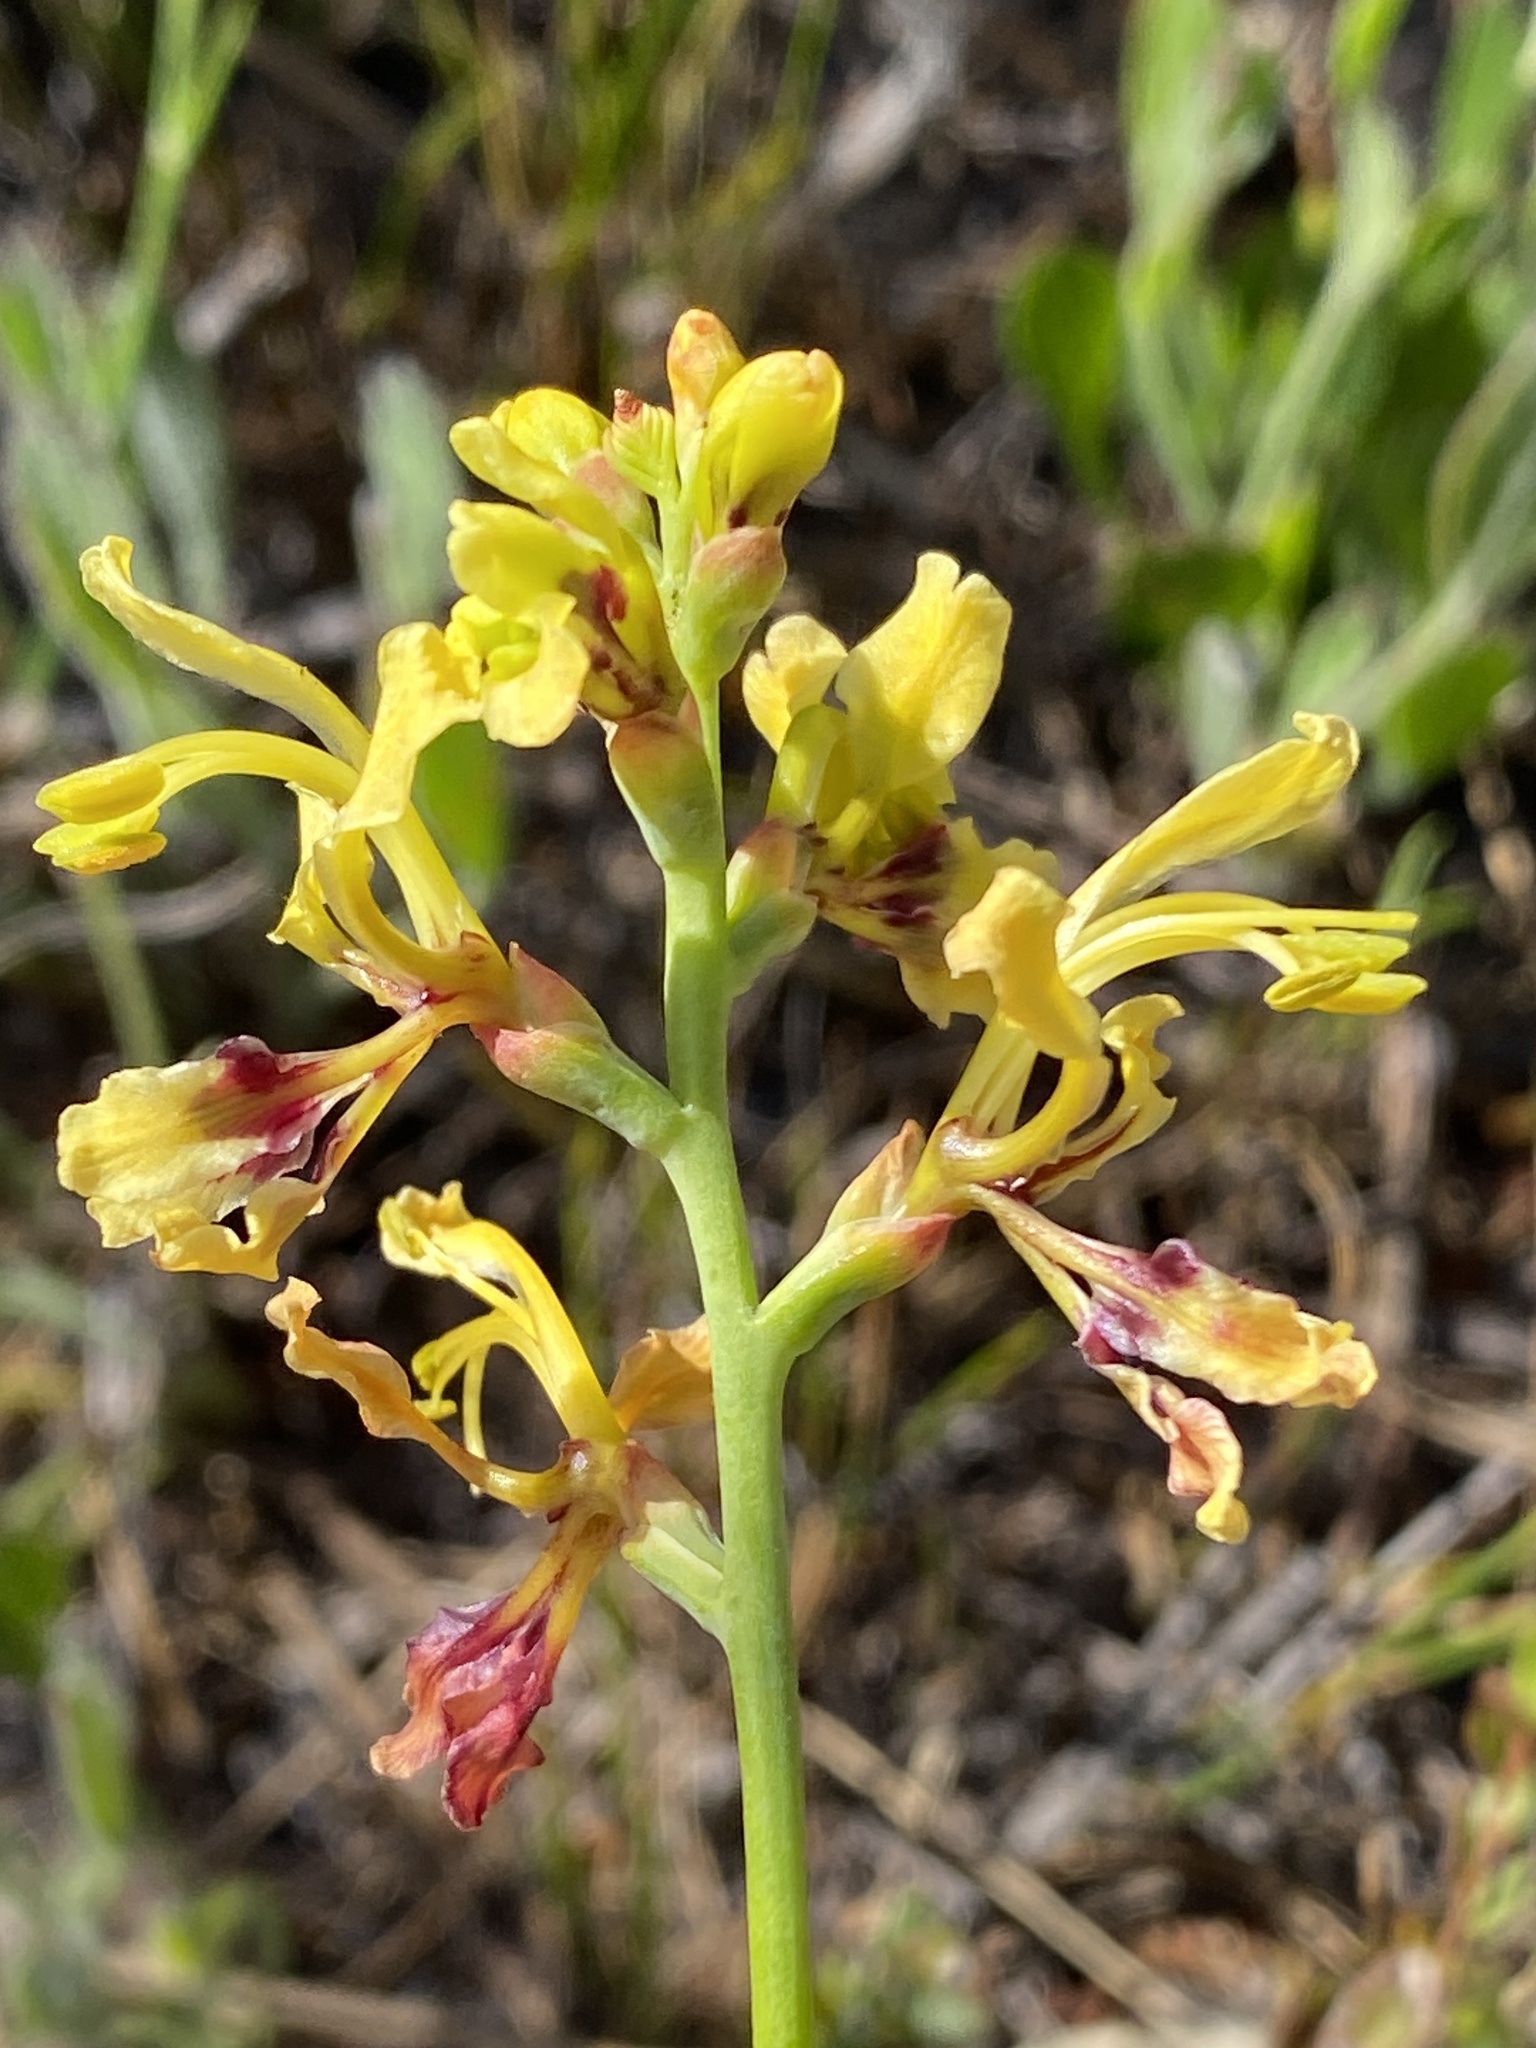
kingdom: Plantae
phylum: Tracheophyta
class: Liliopsida
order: Asparagales
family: Iridaceae
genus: Tritoniopsis
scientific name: Tritoniopsis parviflora
